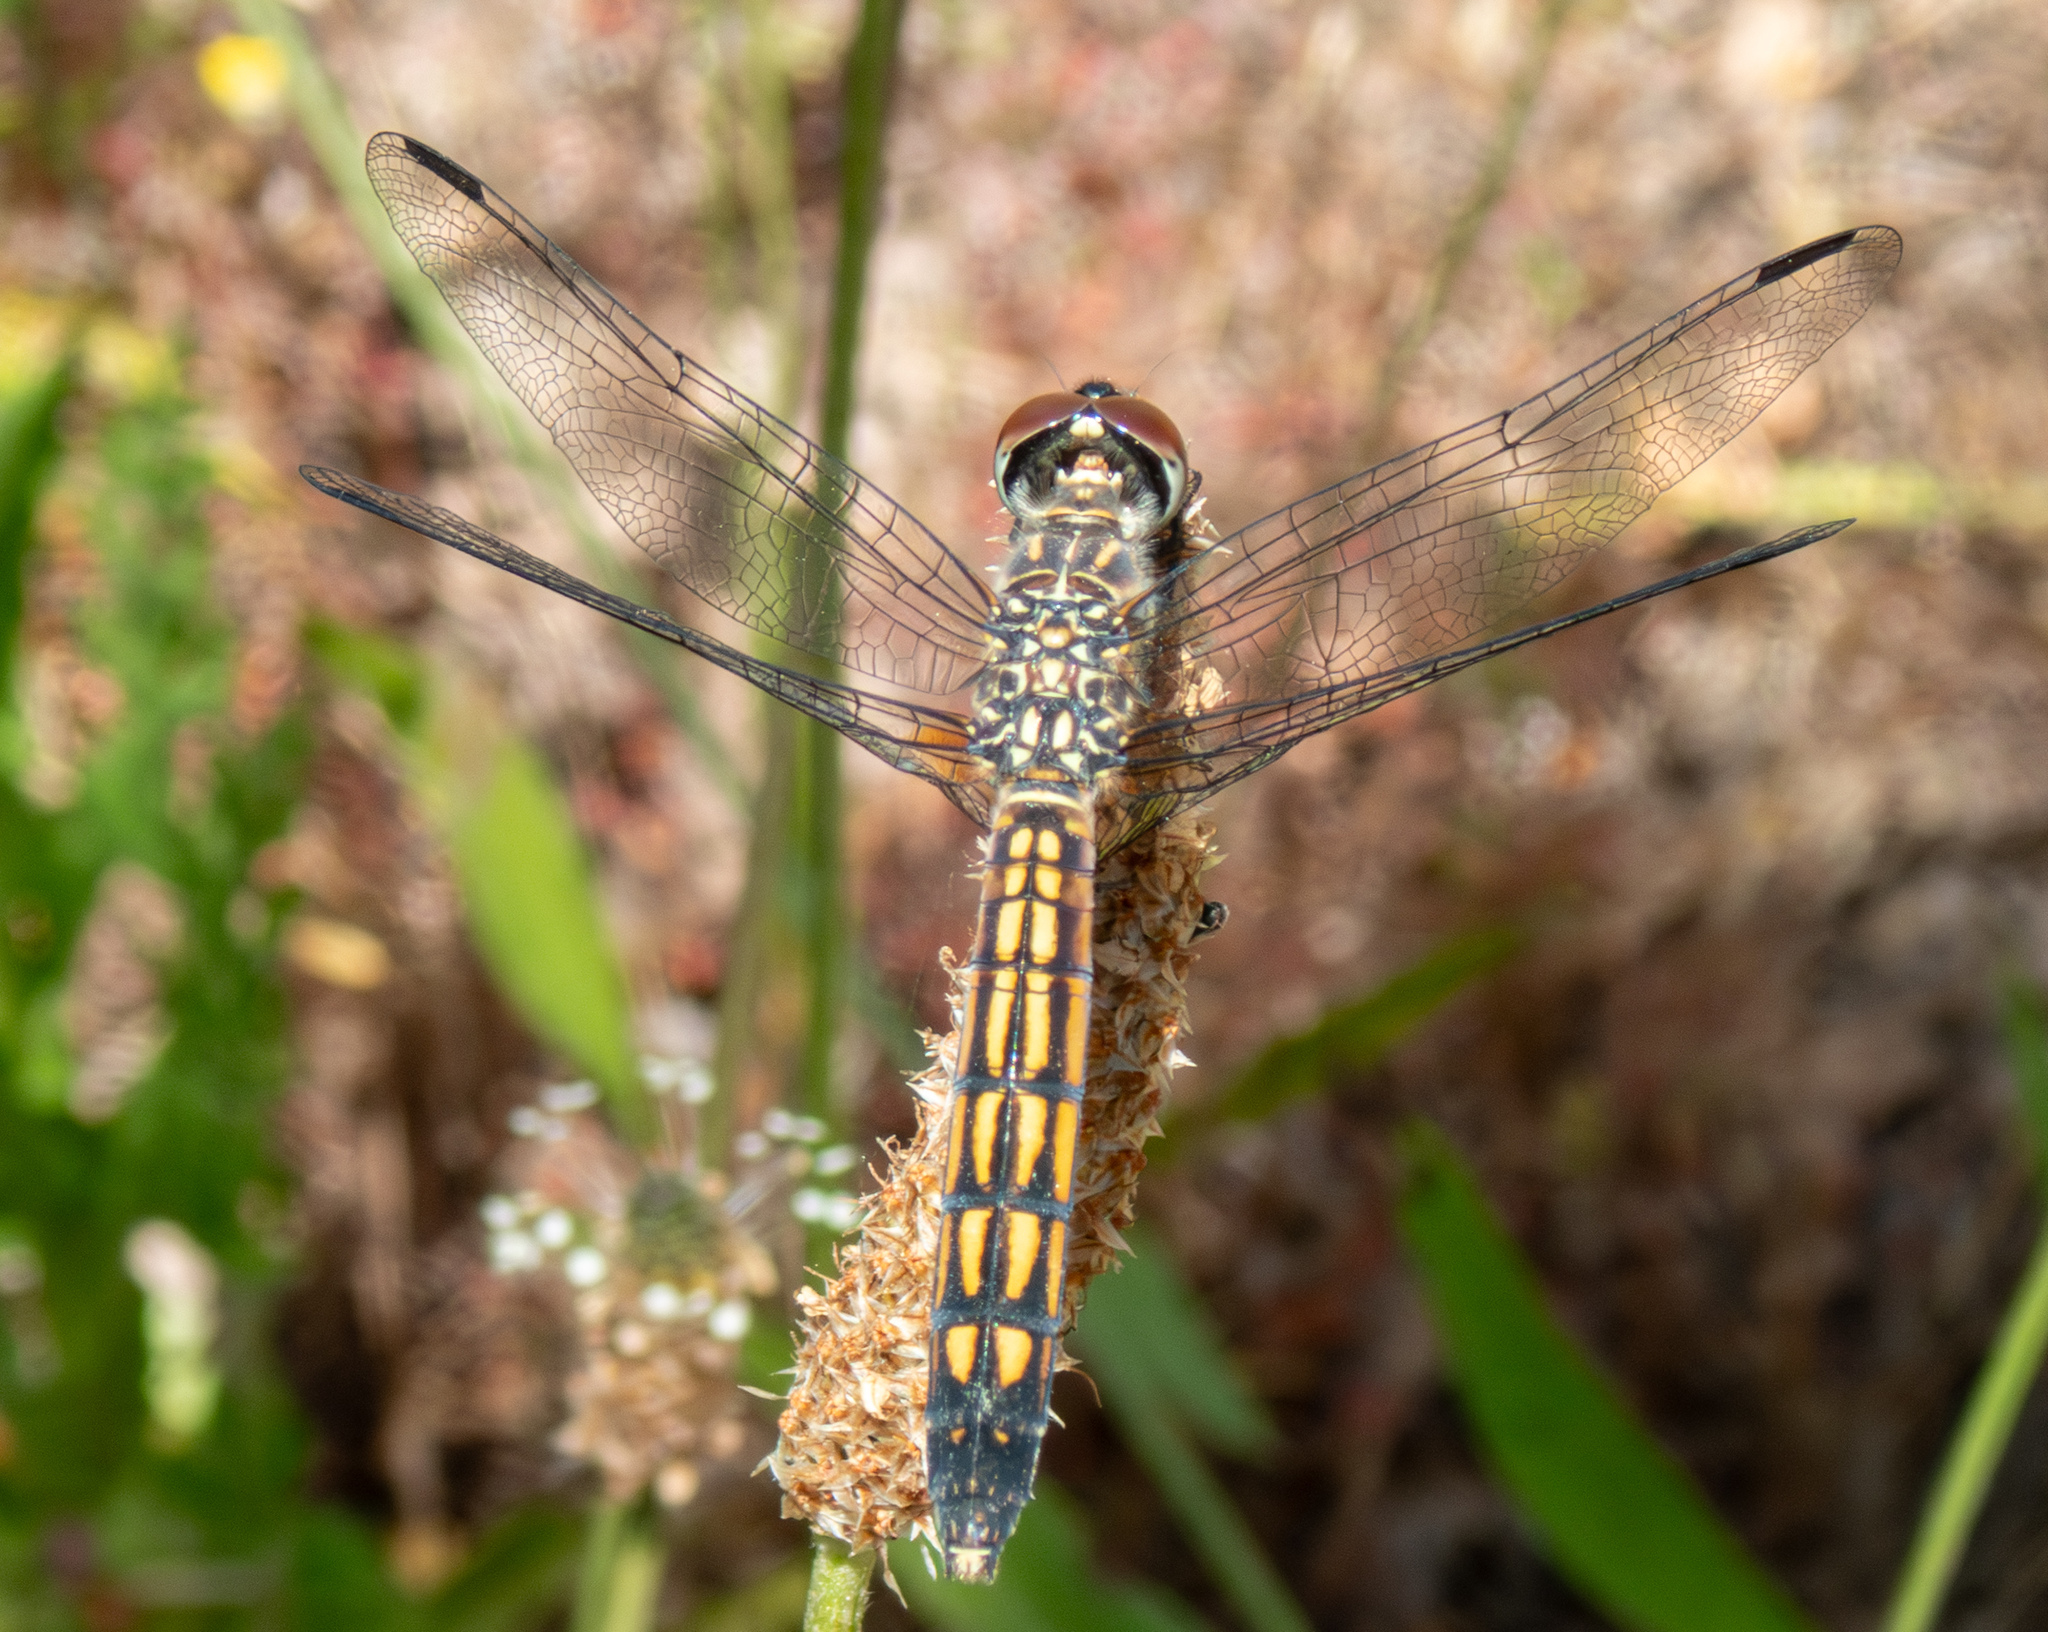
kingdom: Animalia
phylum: Arthropoda
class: Insecta
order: Odonata
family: Libellulidae
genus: Pachydiplax
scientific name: Pachydiplax longipennis
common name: Blue dasher
